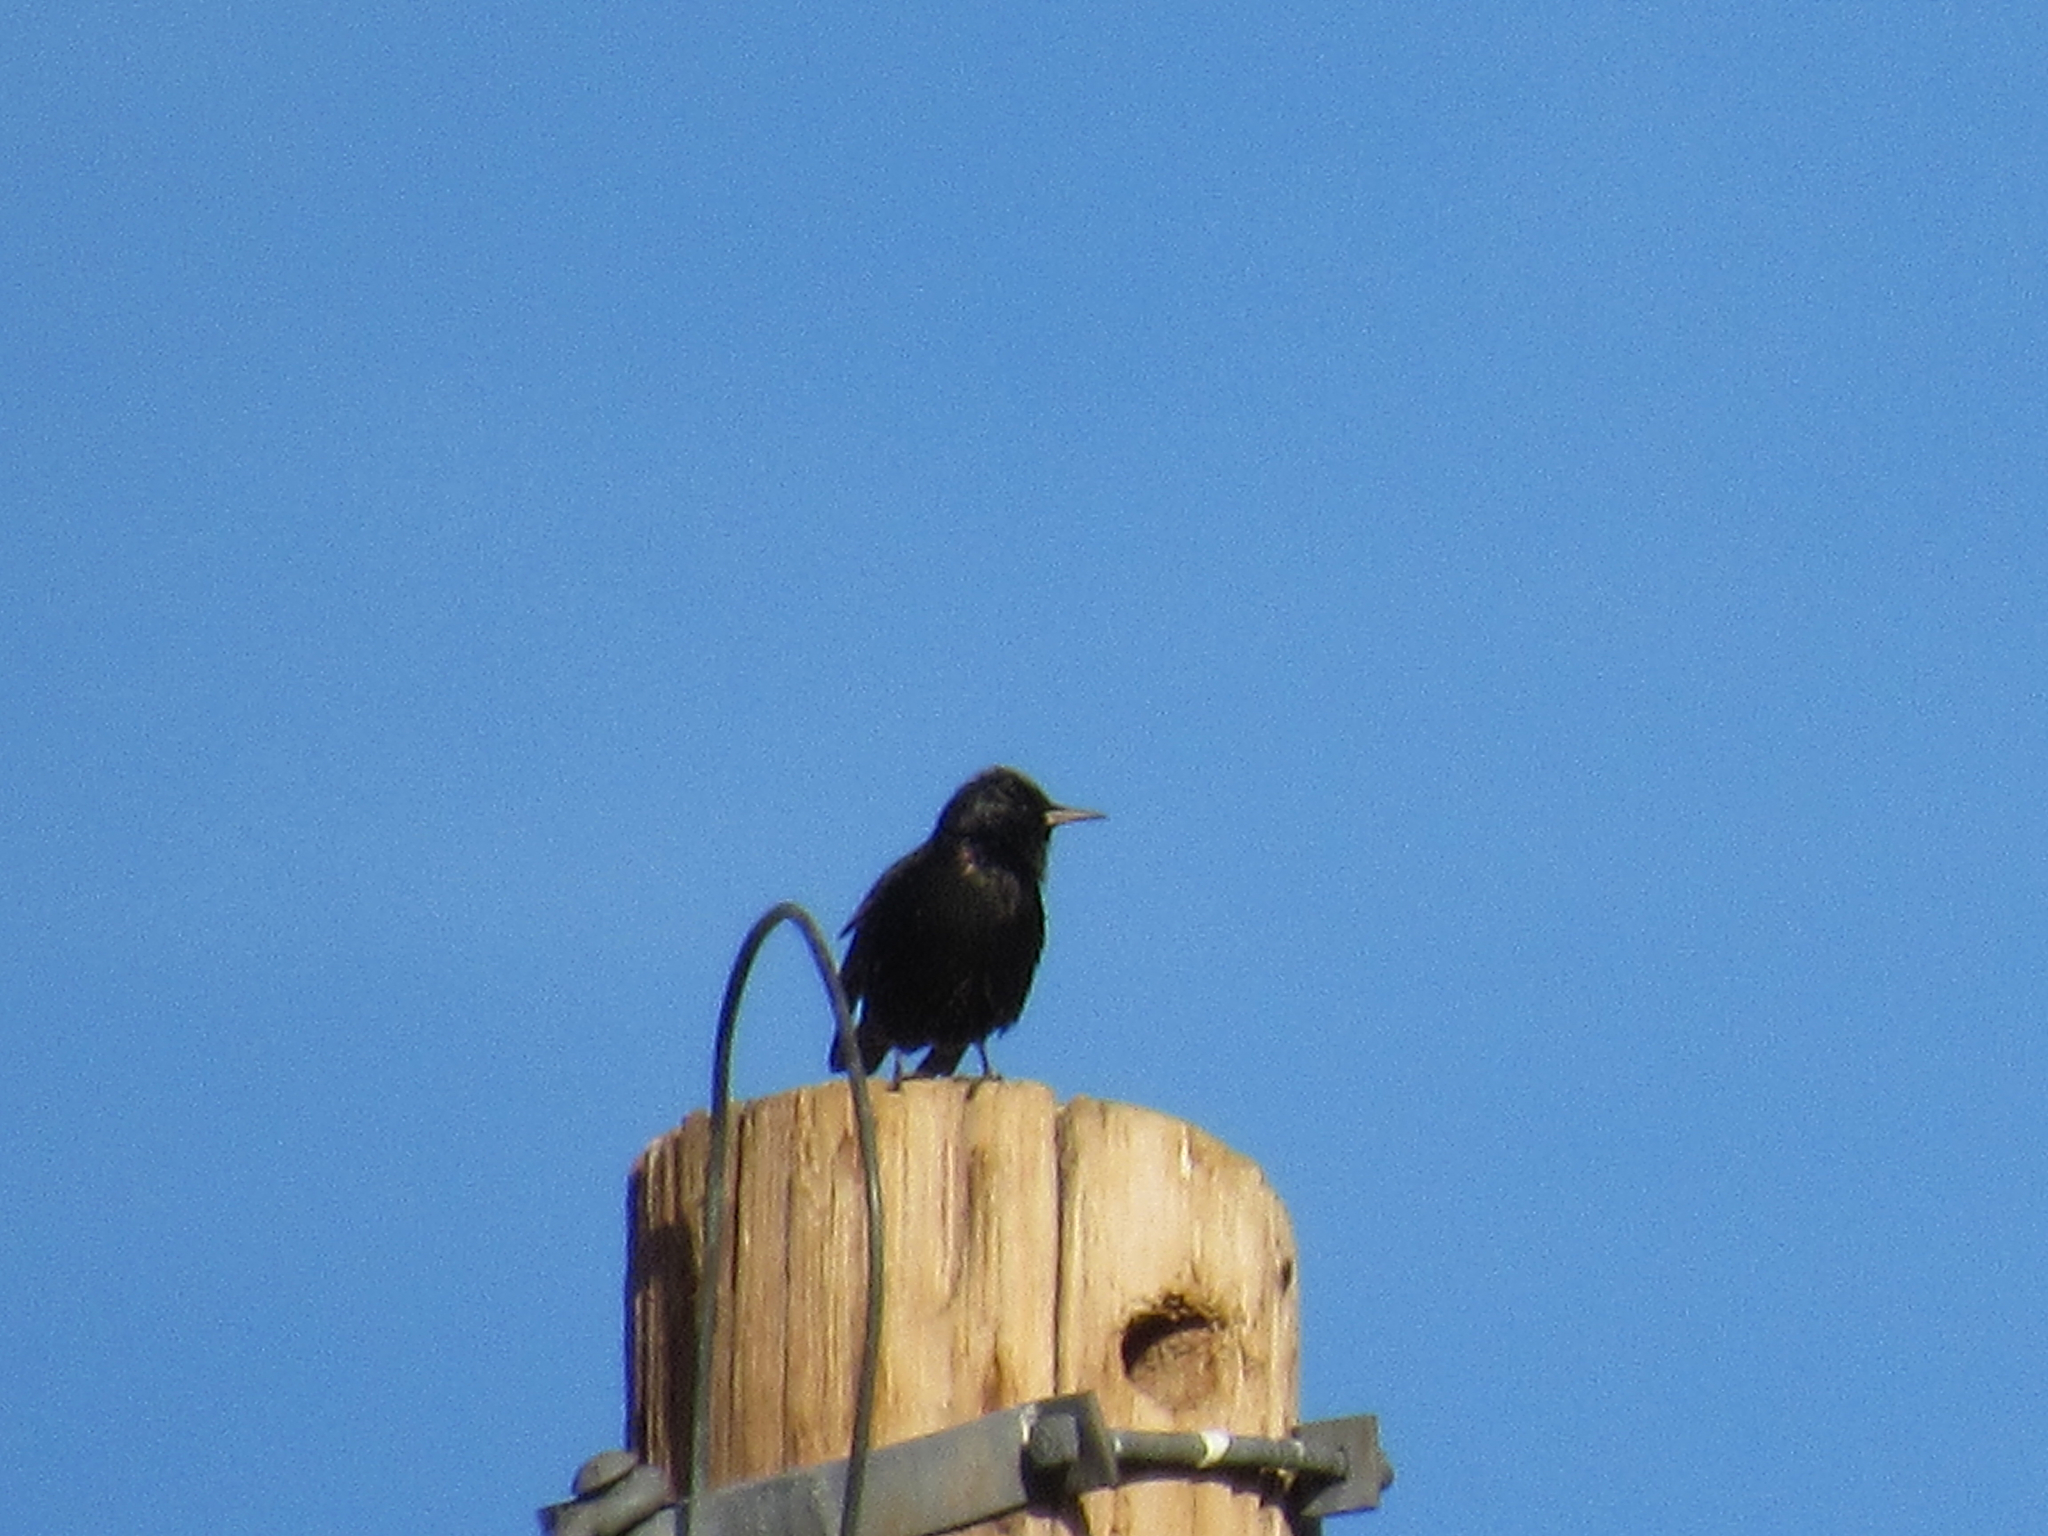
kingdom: Animalia
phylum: Chordata
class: Aves
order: Passeriformes
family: Sturnidae
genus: Sturnus
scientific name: Sturnus vulgaris
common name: Common starling
